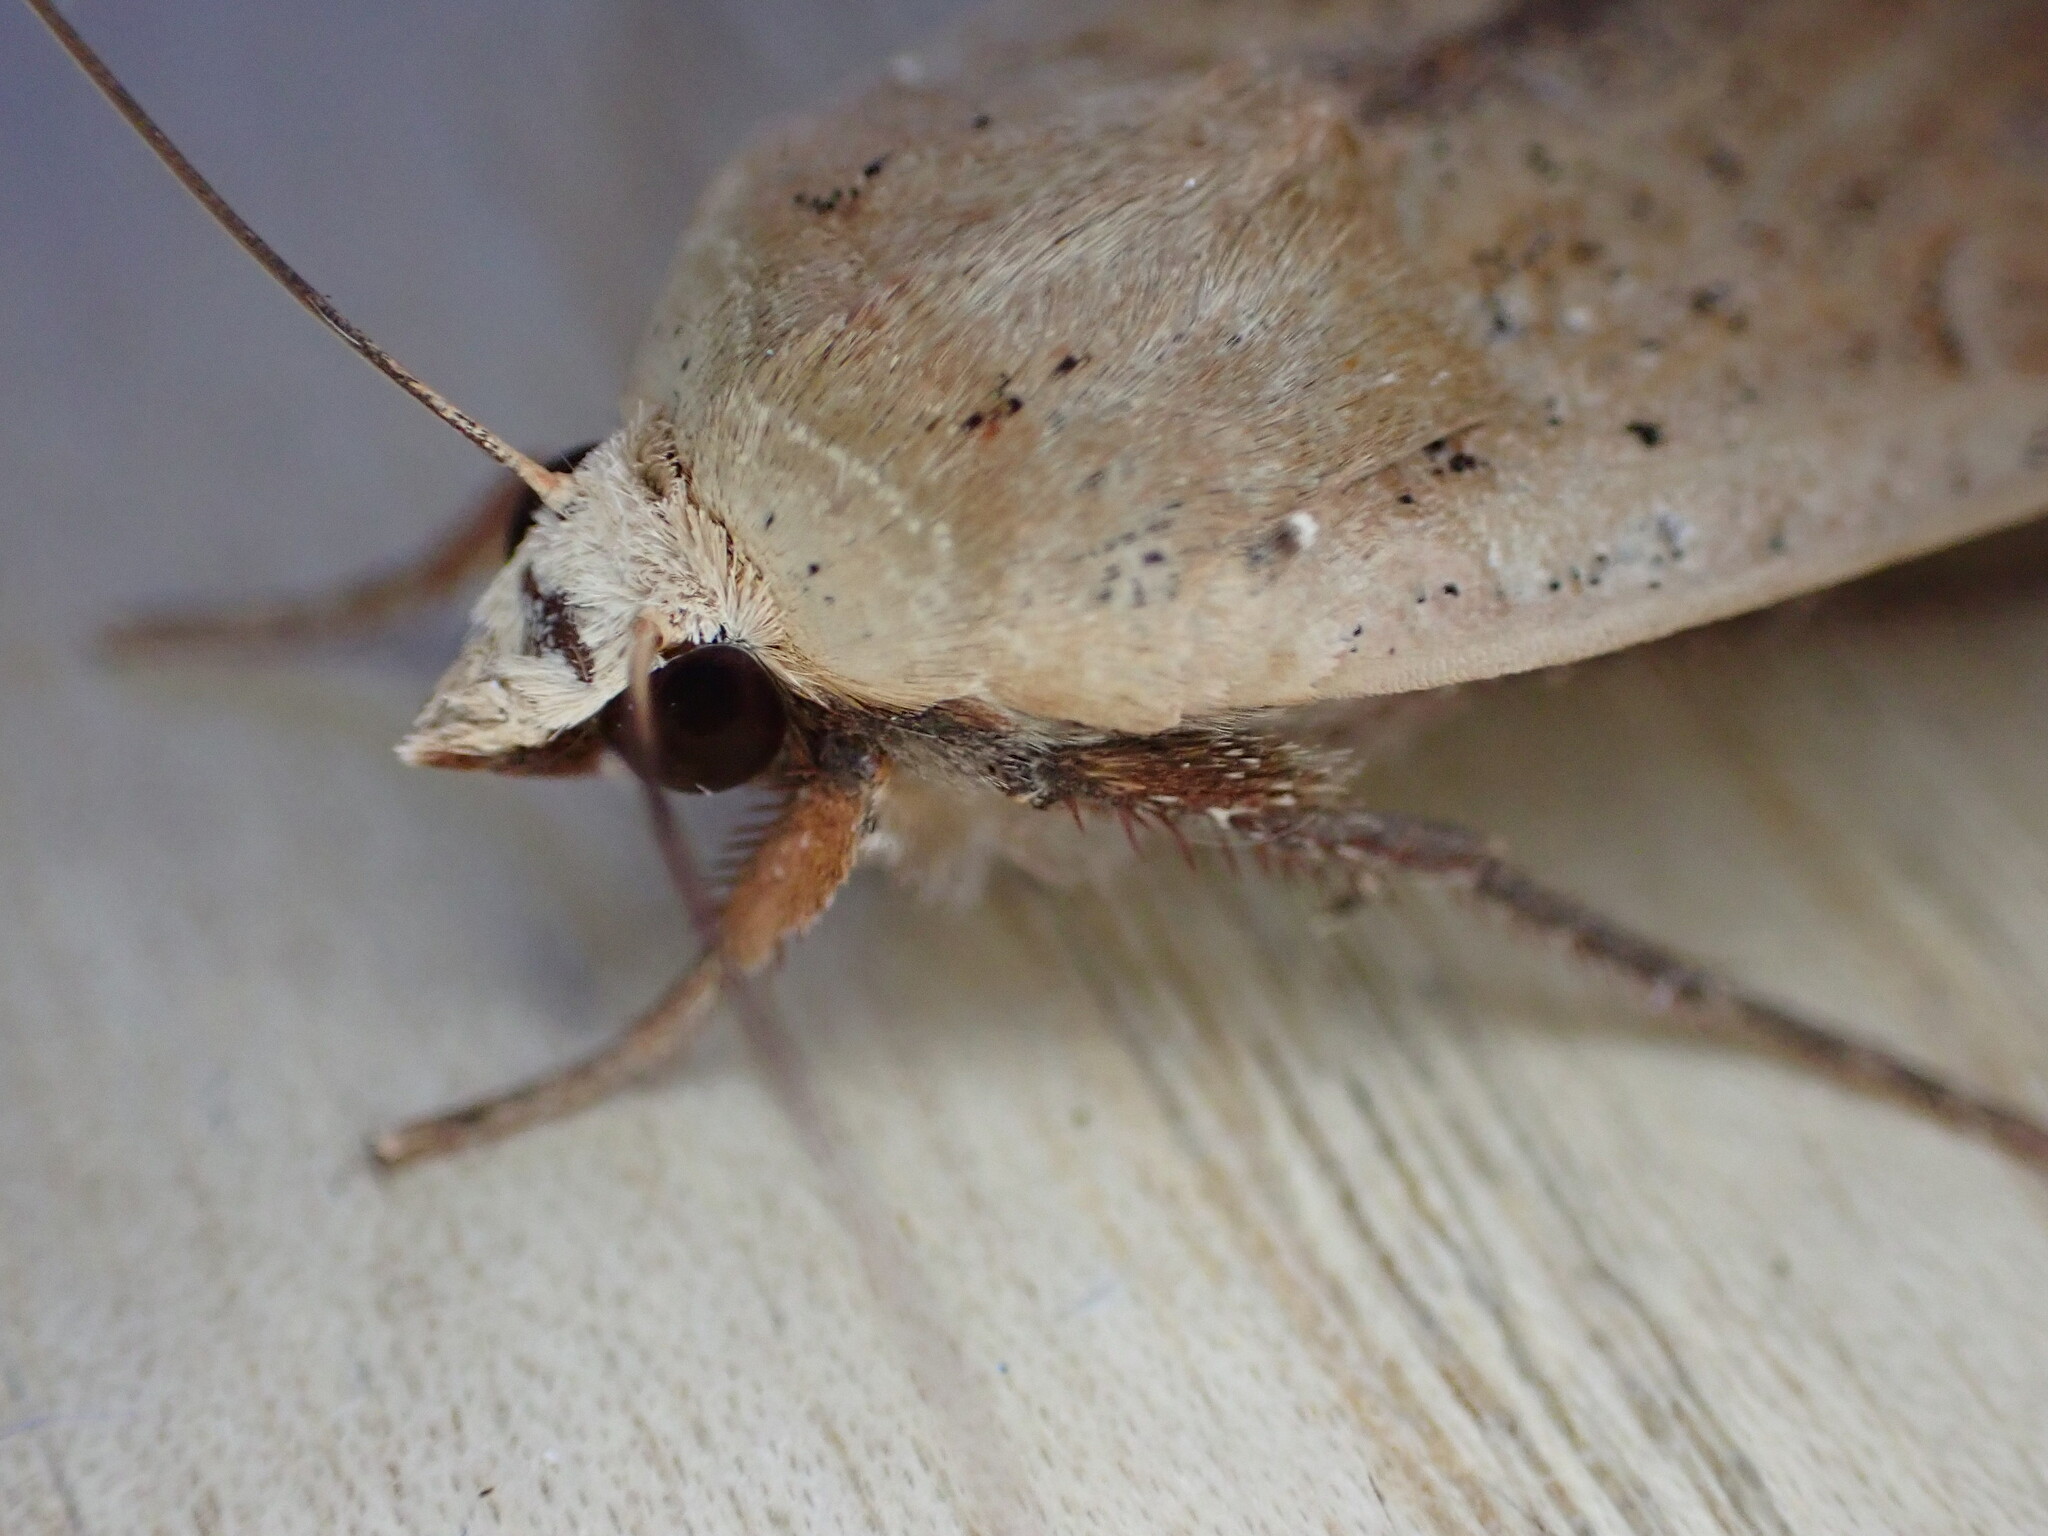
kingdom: Animalia
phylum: Arthropoda
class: Insecta
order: Lepidoptera
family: Noctuidae
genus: Noctua
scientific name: Noctua pronuba
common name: Large yellow underwing
